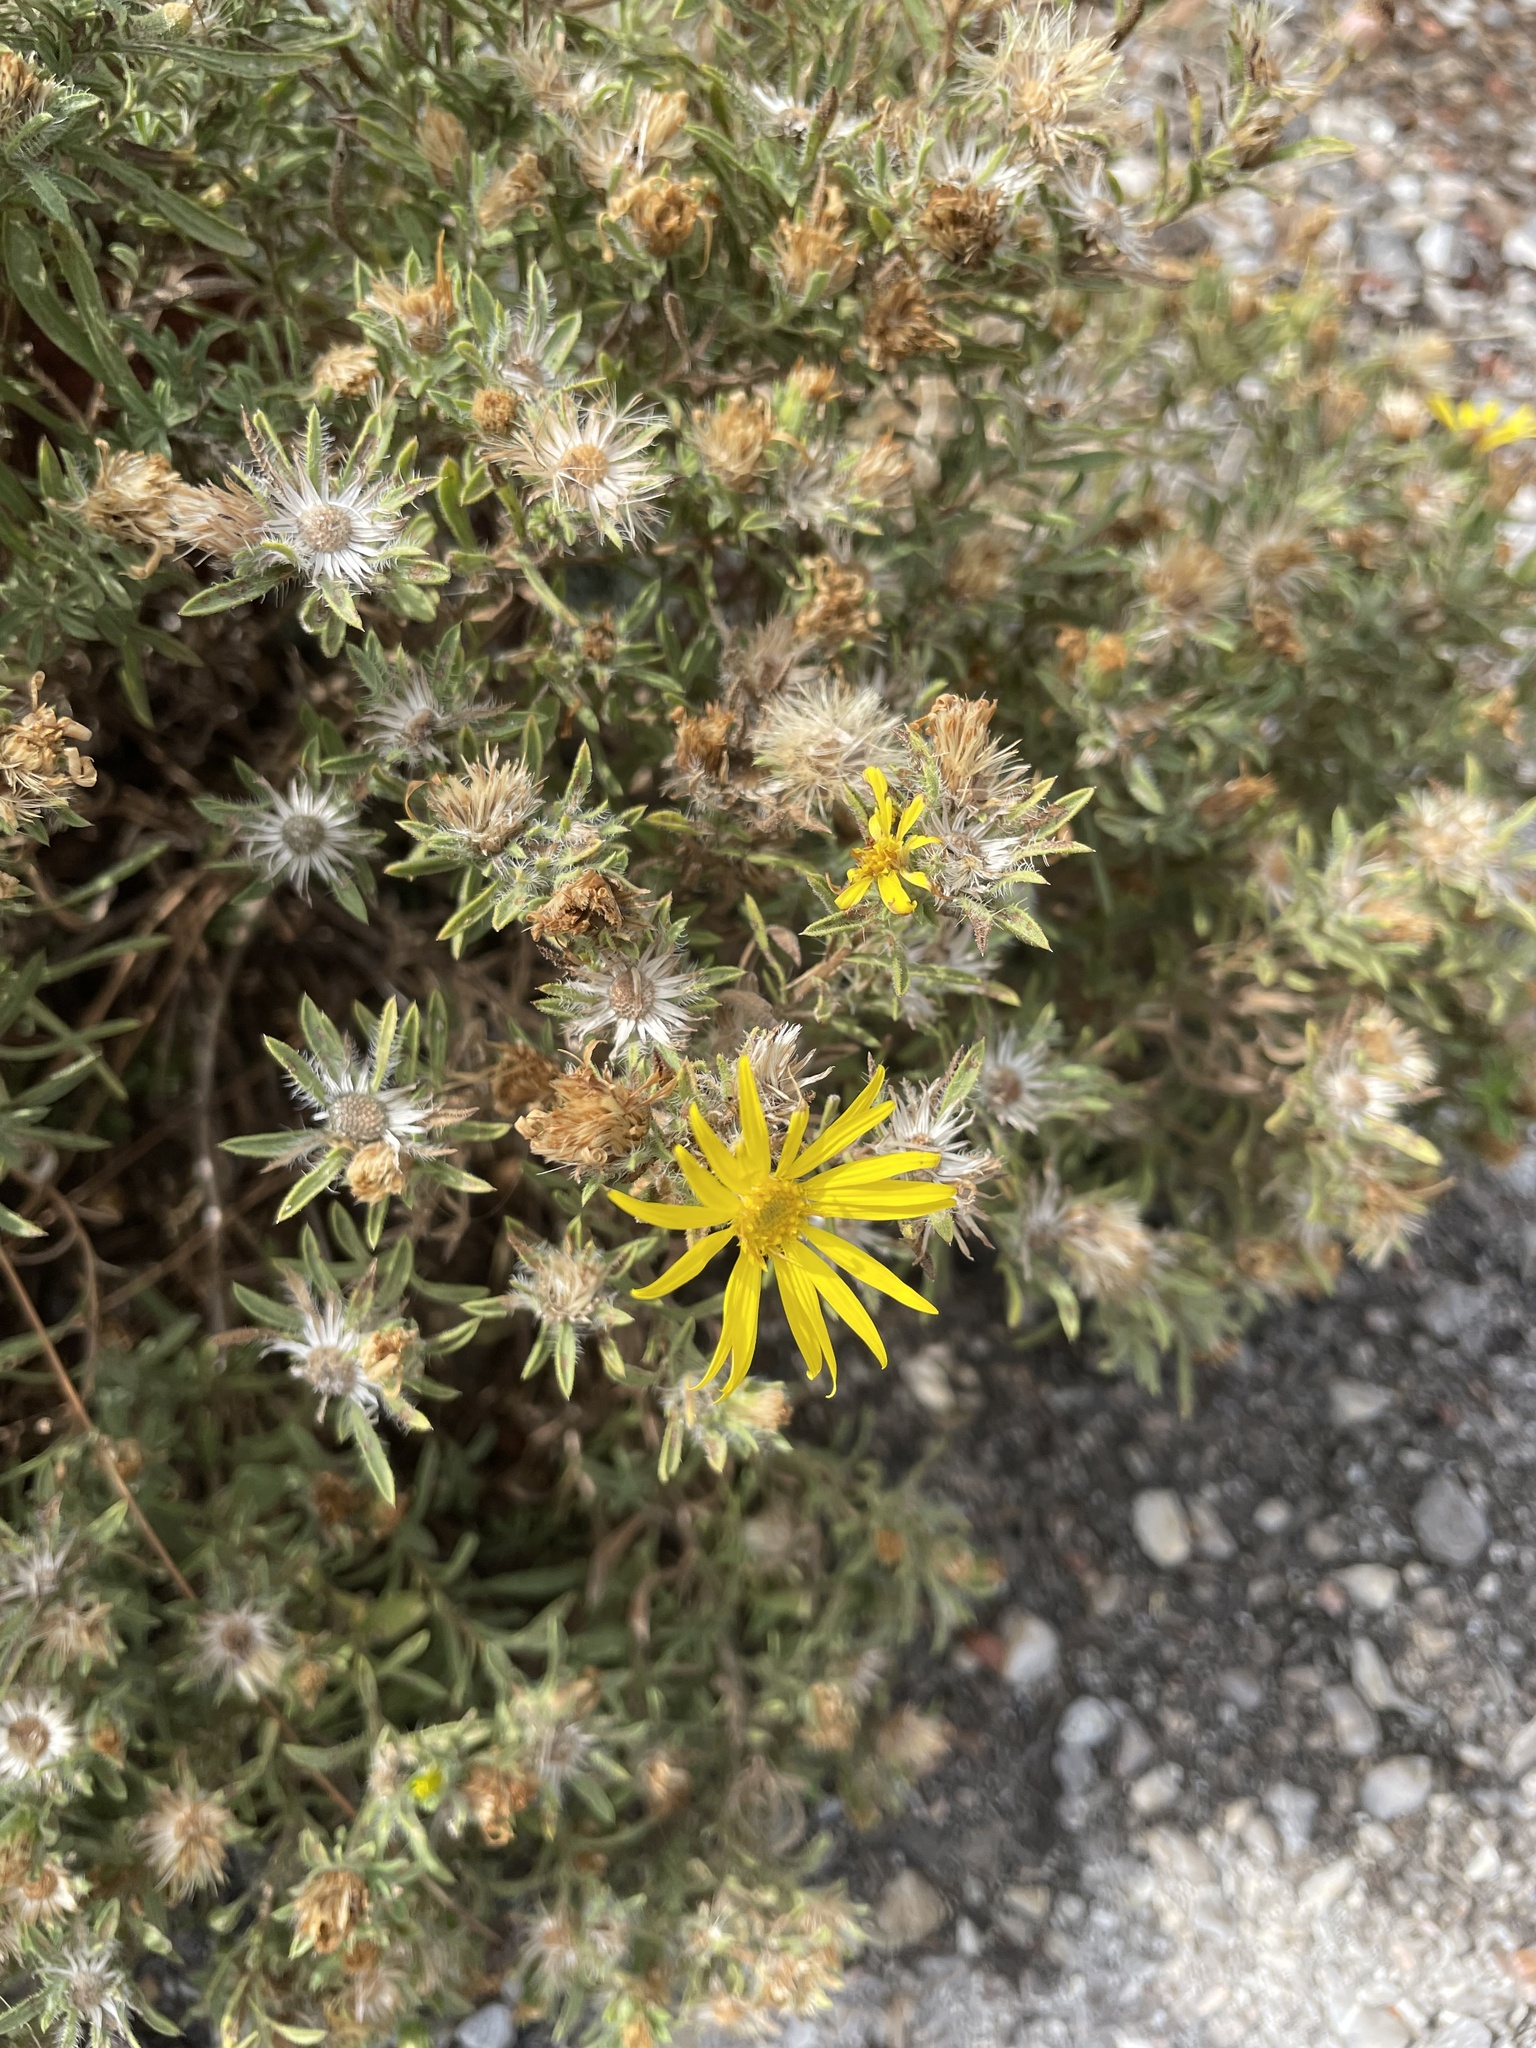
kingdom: Plantae
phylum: Tracheophyta
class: Magnoliopsida
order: Asterales
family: Asteraceae
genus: Heterotheca
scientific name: Heterotheca stenophylla
